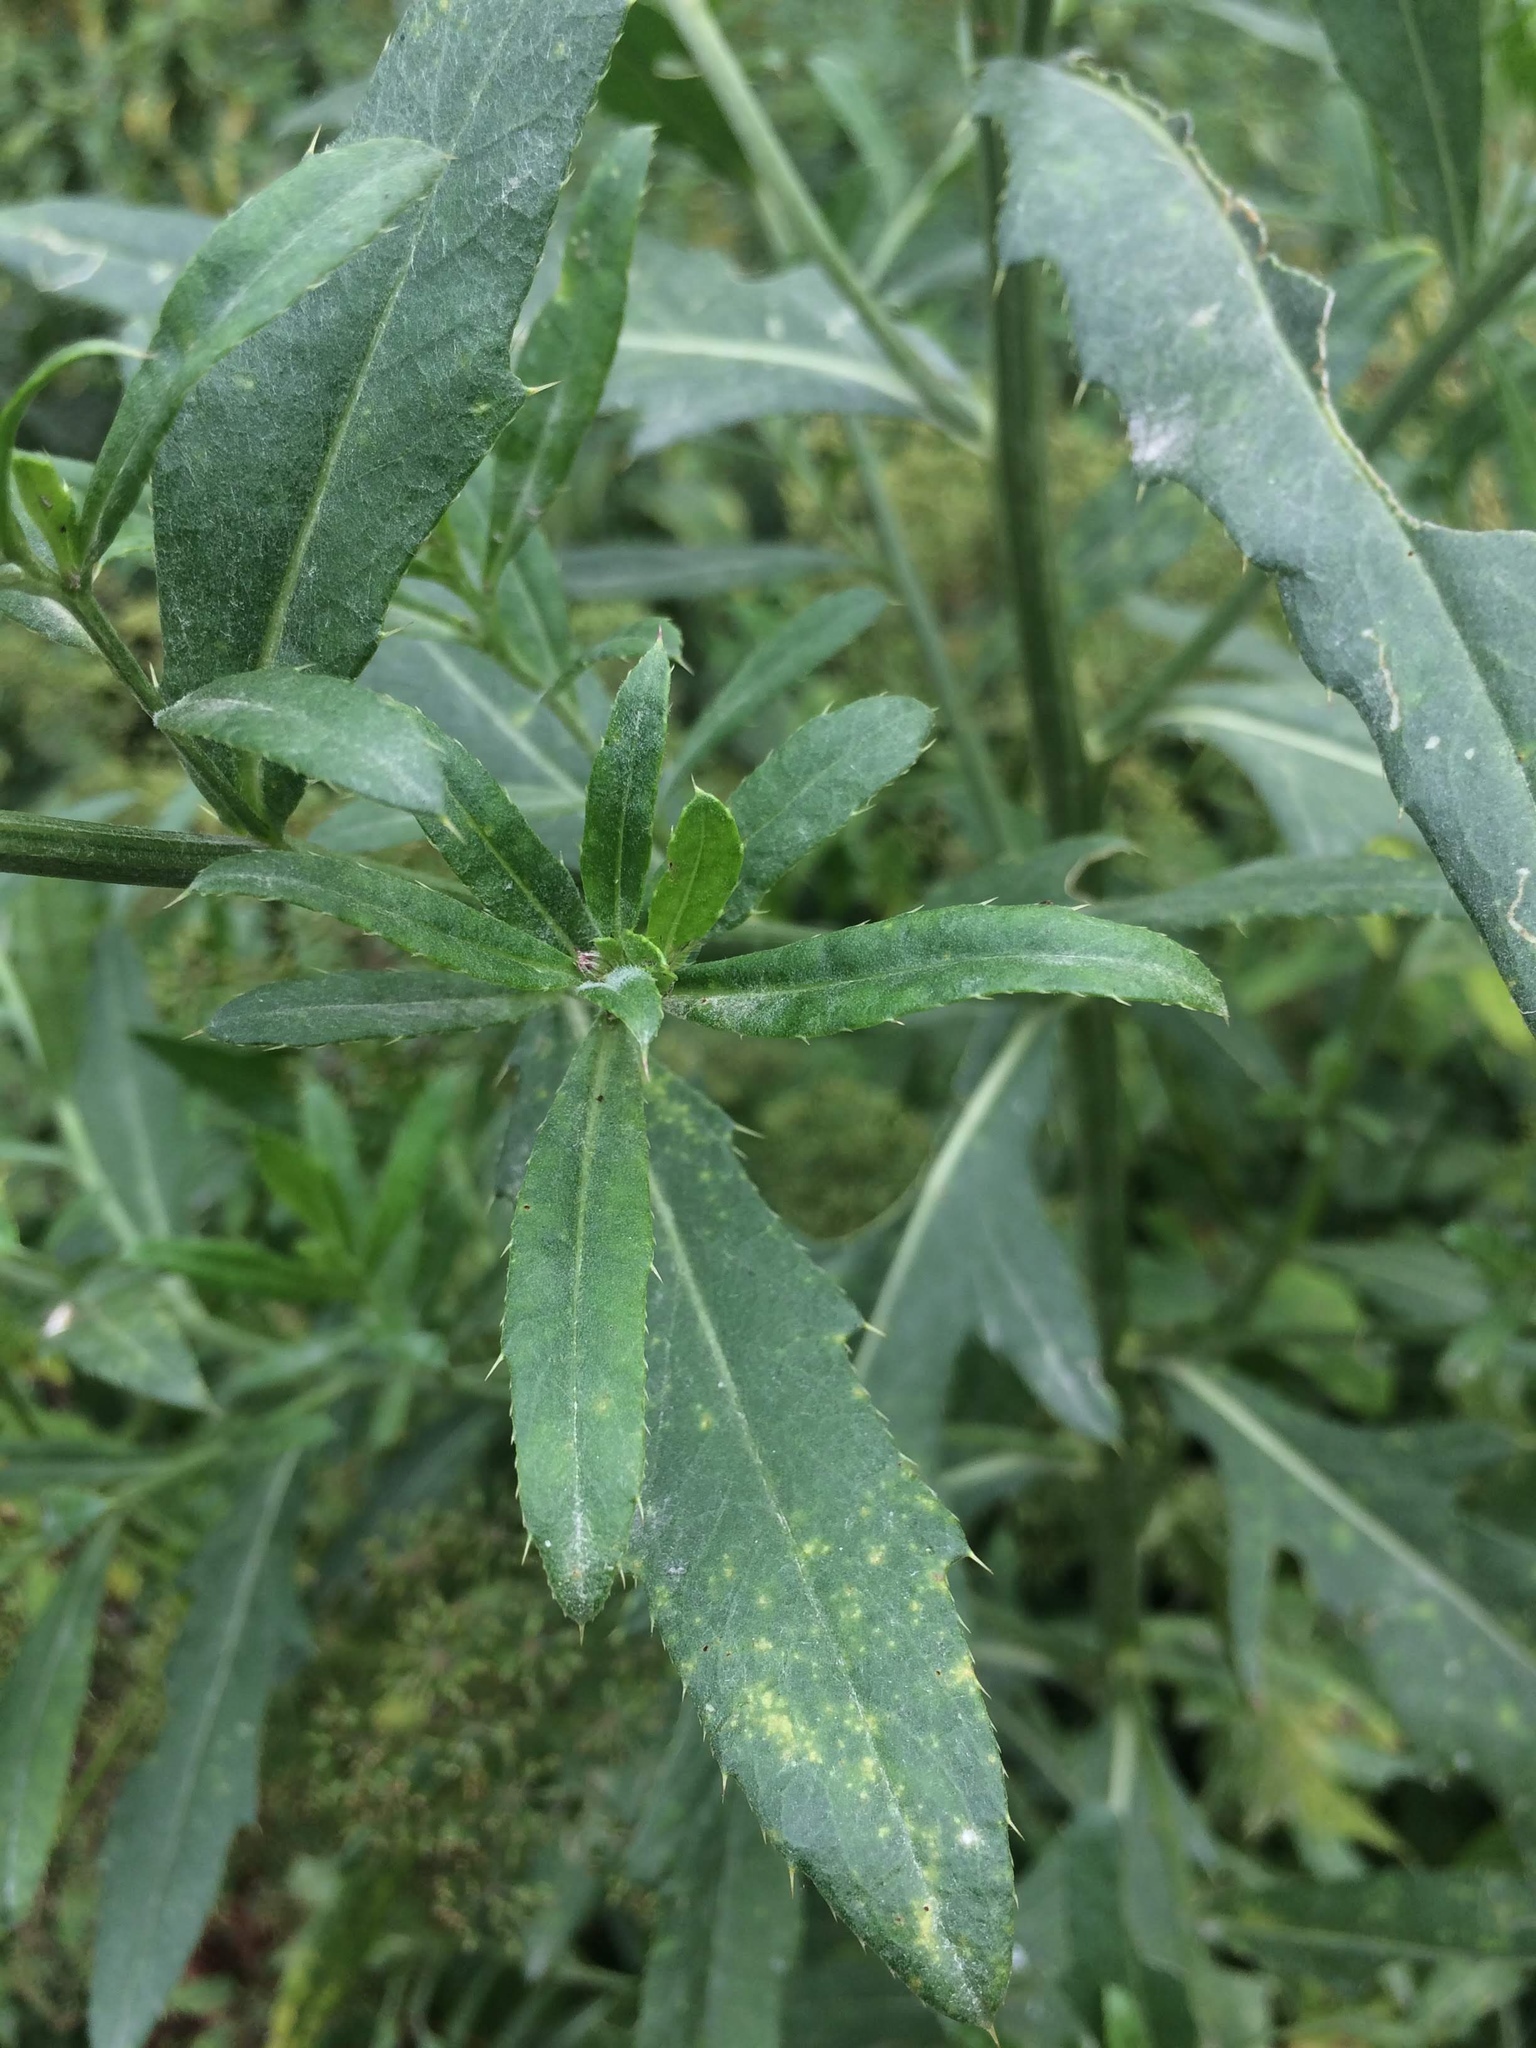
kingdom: Plantae
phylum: Tracheophyta
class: Magnoliopsida
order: Asterales
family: Asteraceae
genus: Cirsium
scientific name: Cirsium arvense
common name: Creeping thistle
